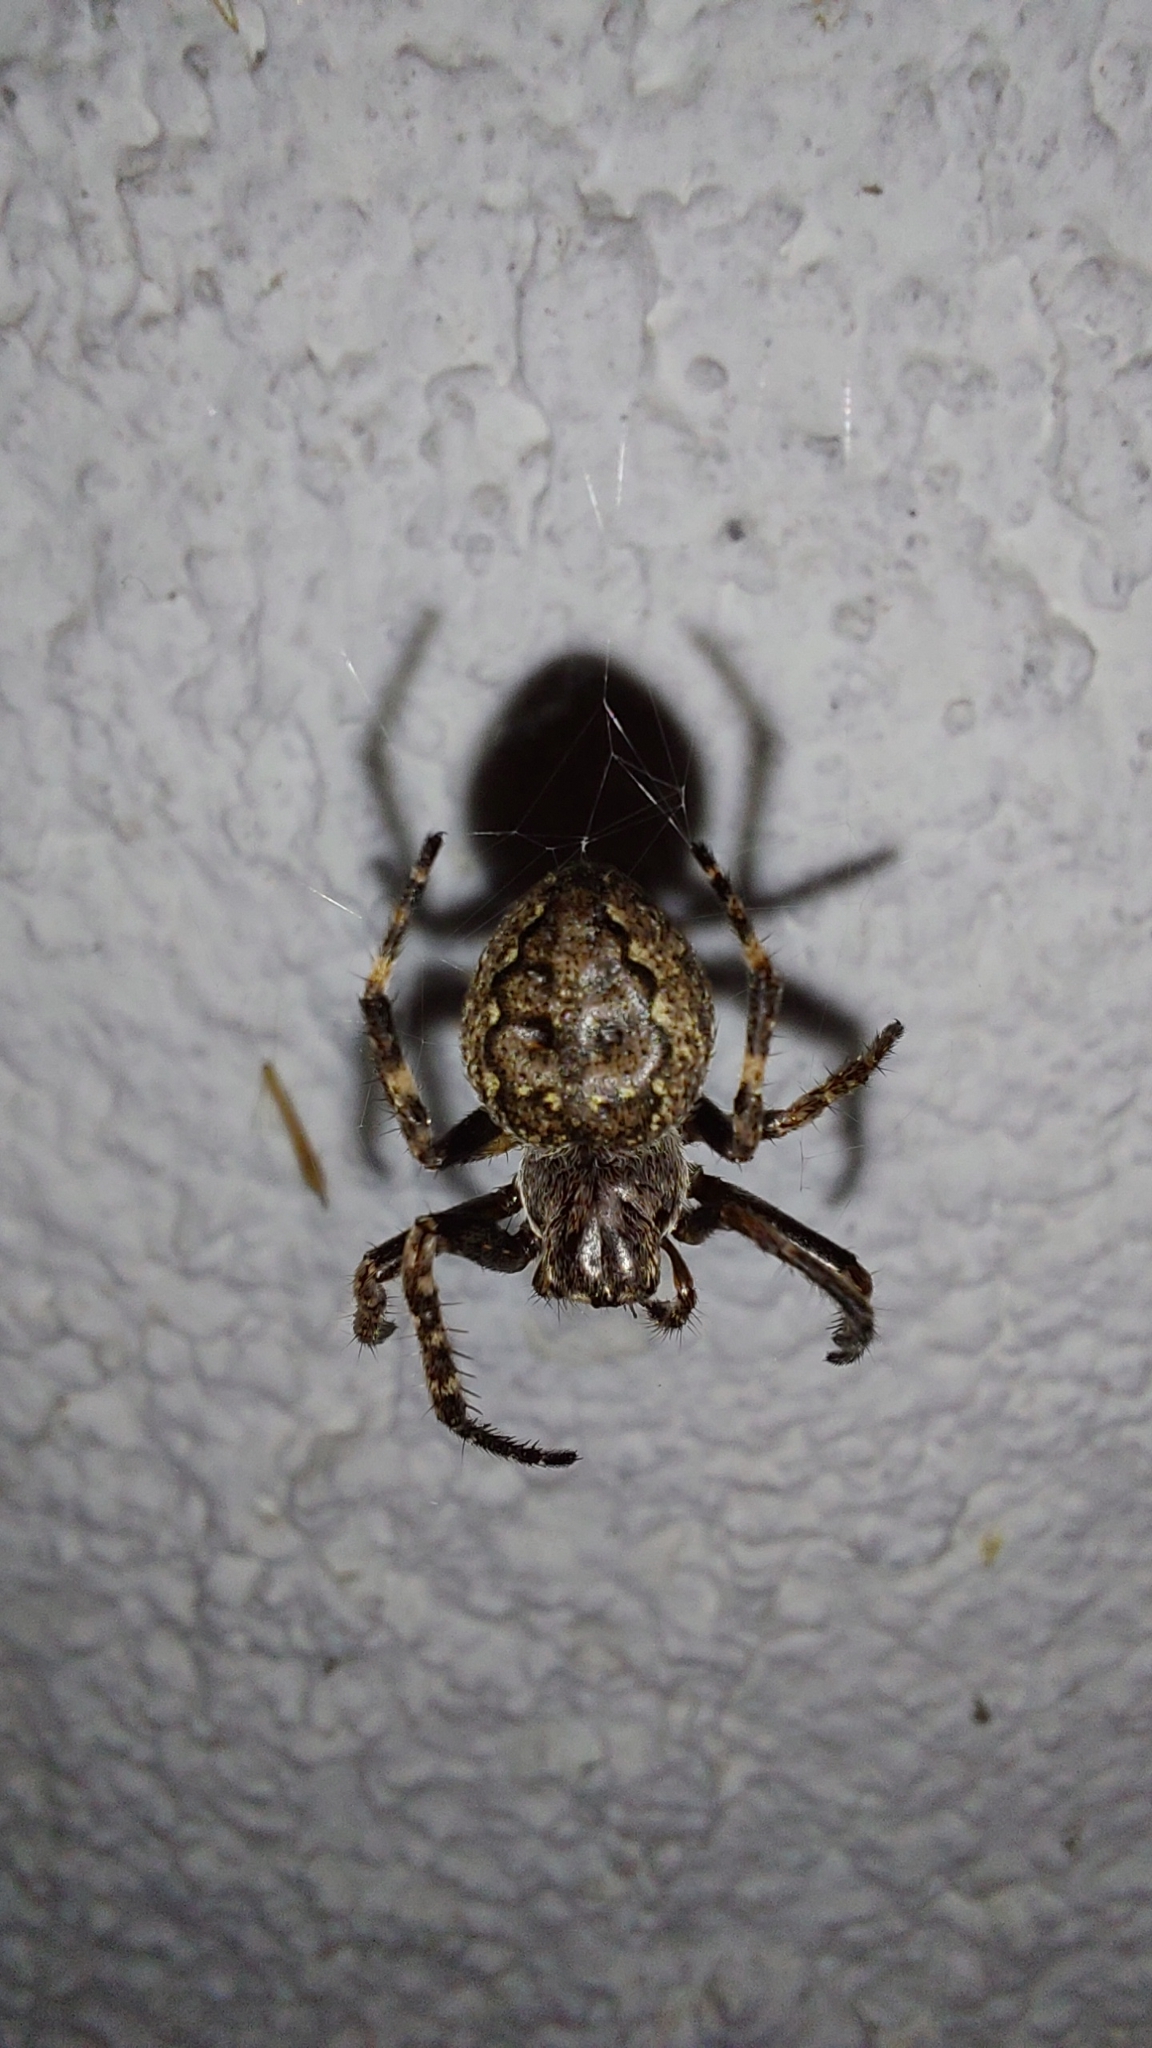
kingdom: Animalia
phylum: Arthropoda
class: Arachnida
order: Araneae
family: Araneidae
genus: Nuctenea
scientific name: Nuctenea umbratica
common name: Toad spider
